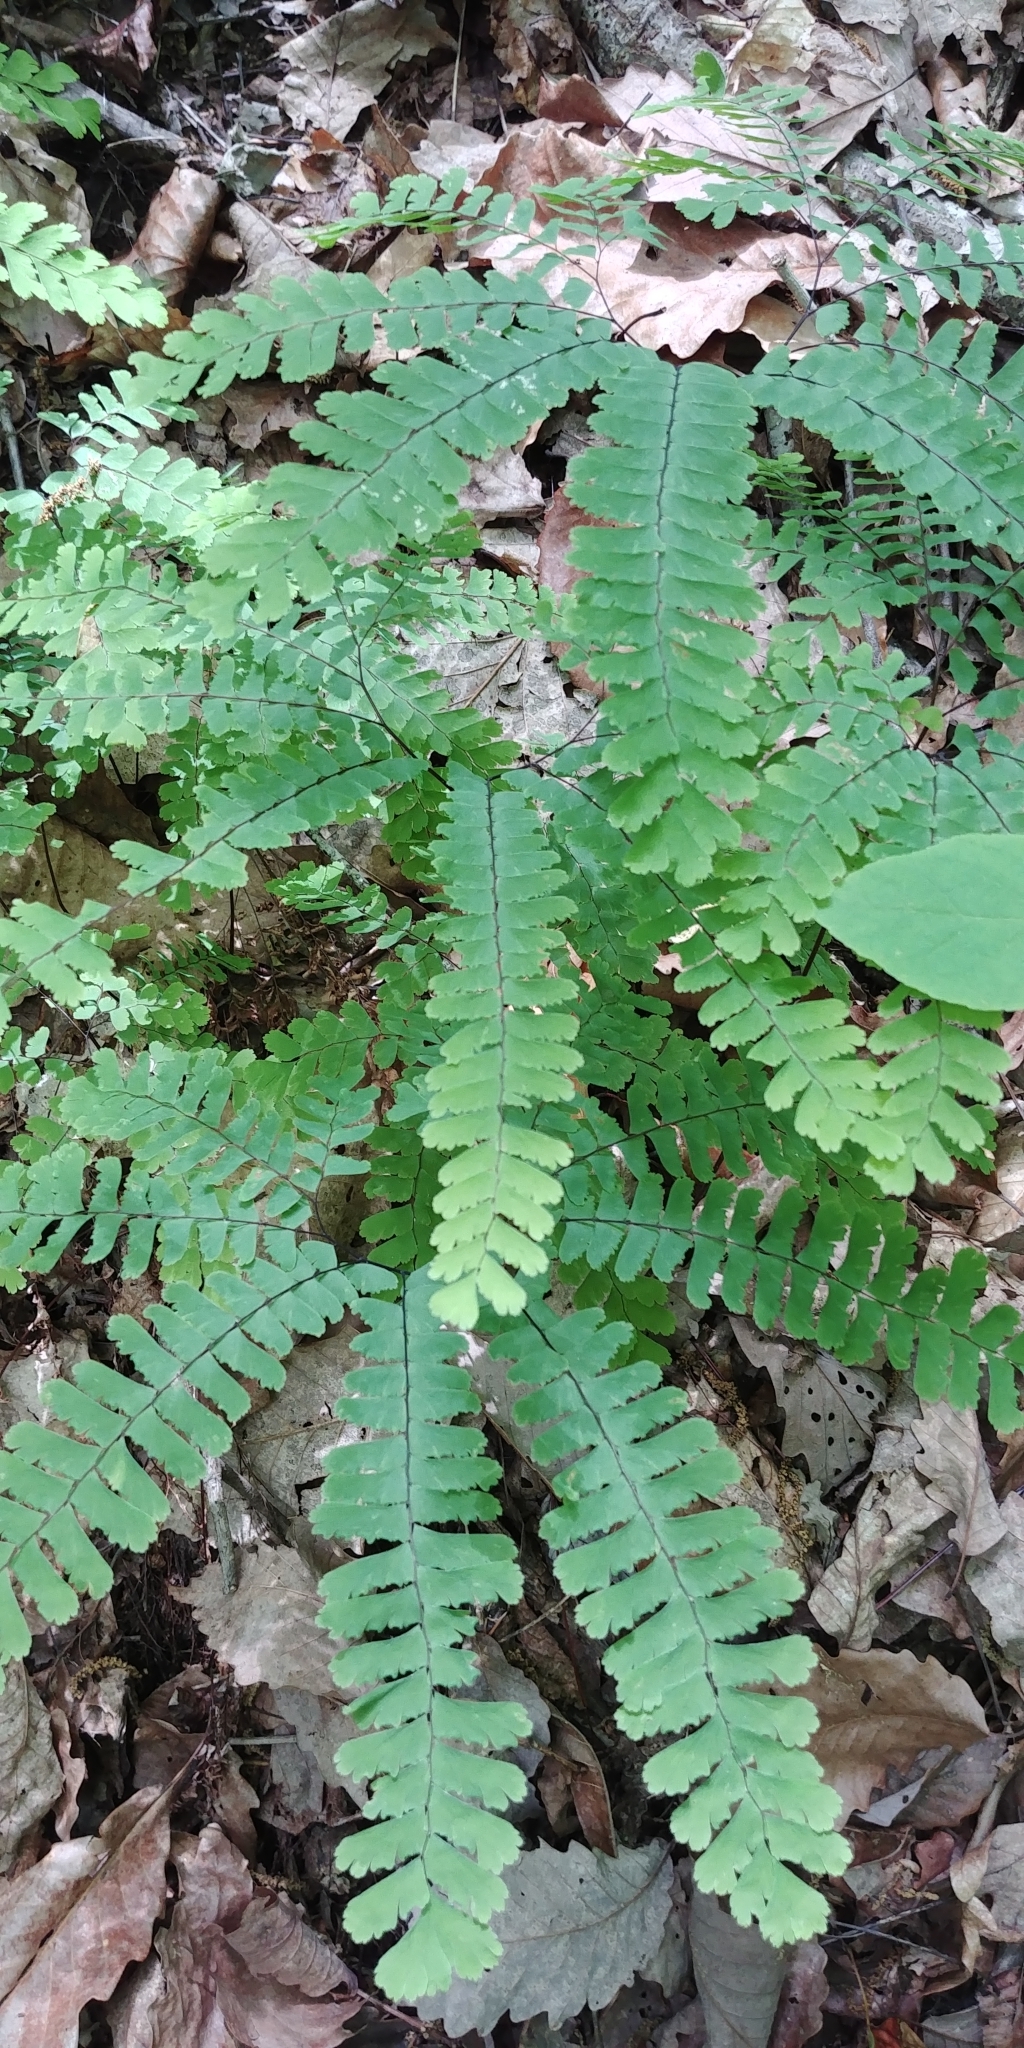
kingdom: Plantae
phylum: Tracheophyta
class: Polypodiopsida
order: Polypodiales
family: Pteridaceae
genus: Adiantum
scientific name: Adiantum pedatum
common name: Five-finger fern
